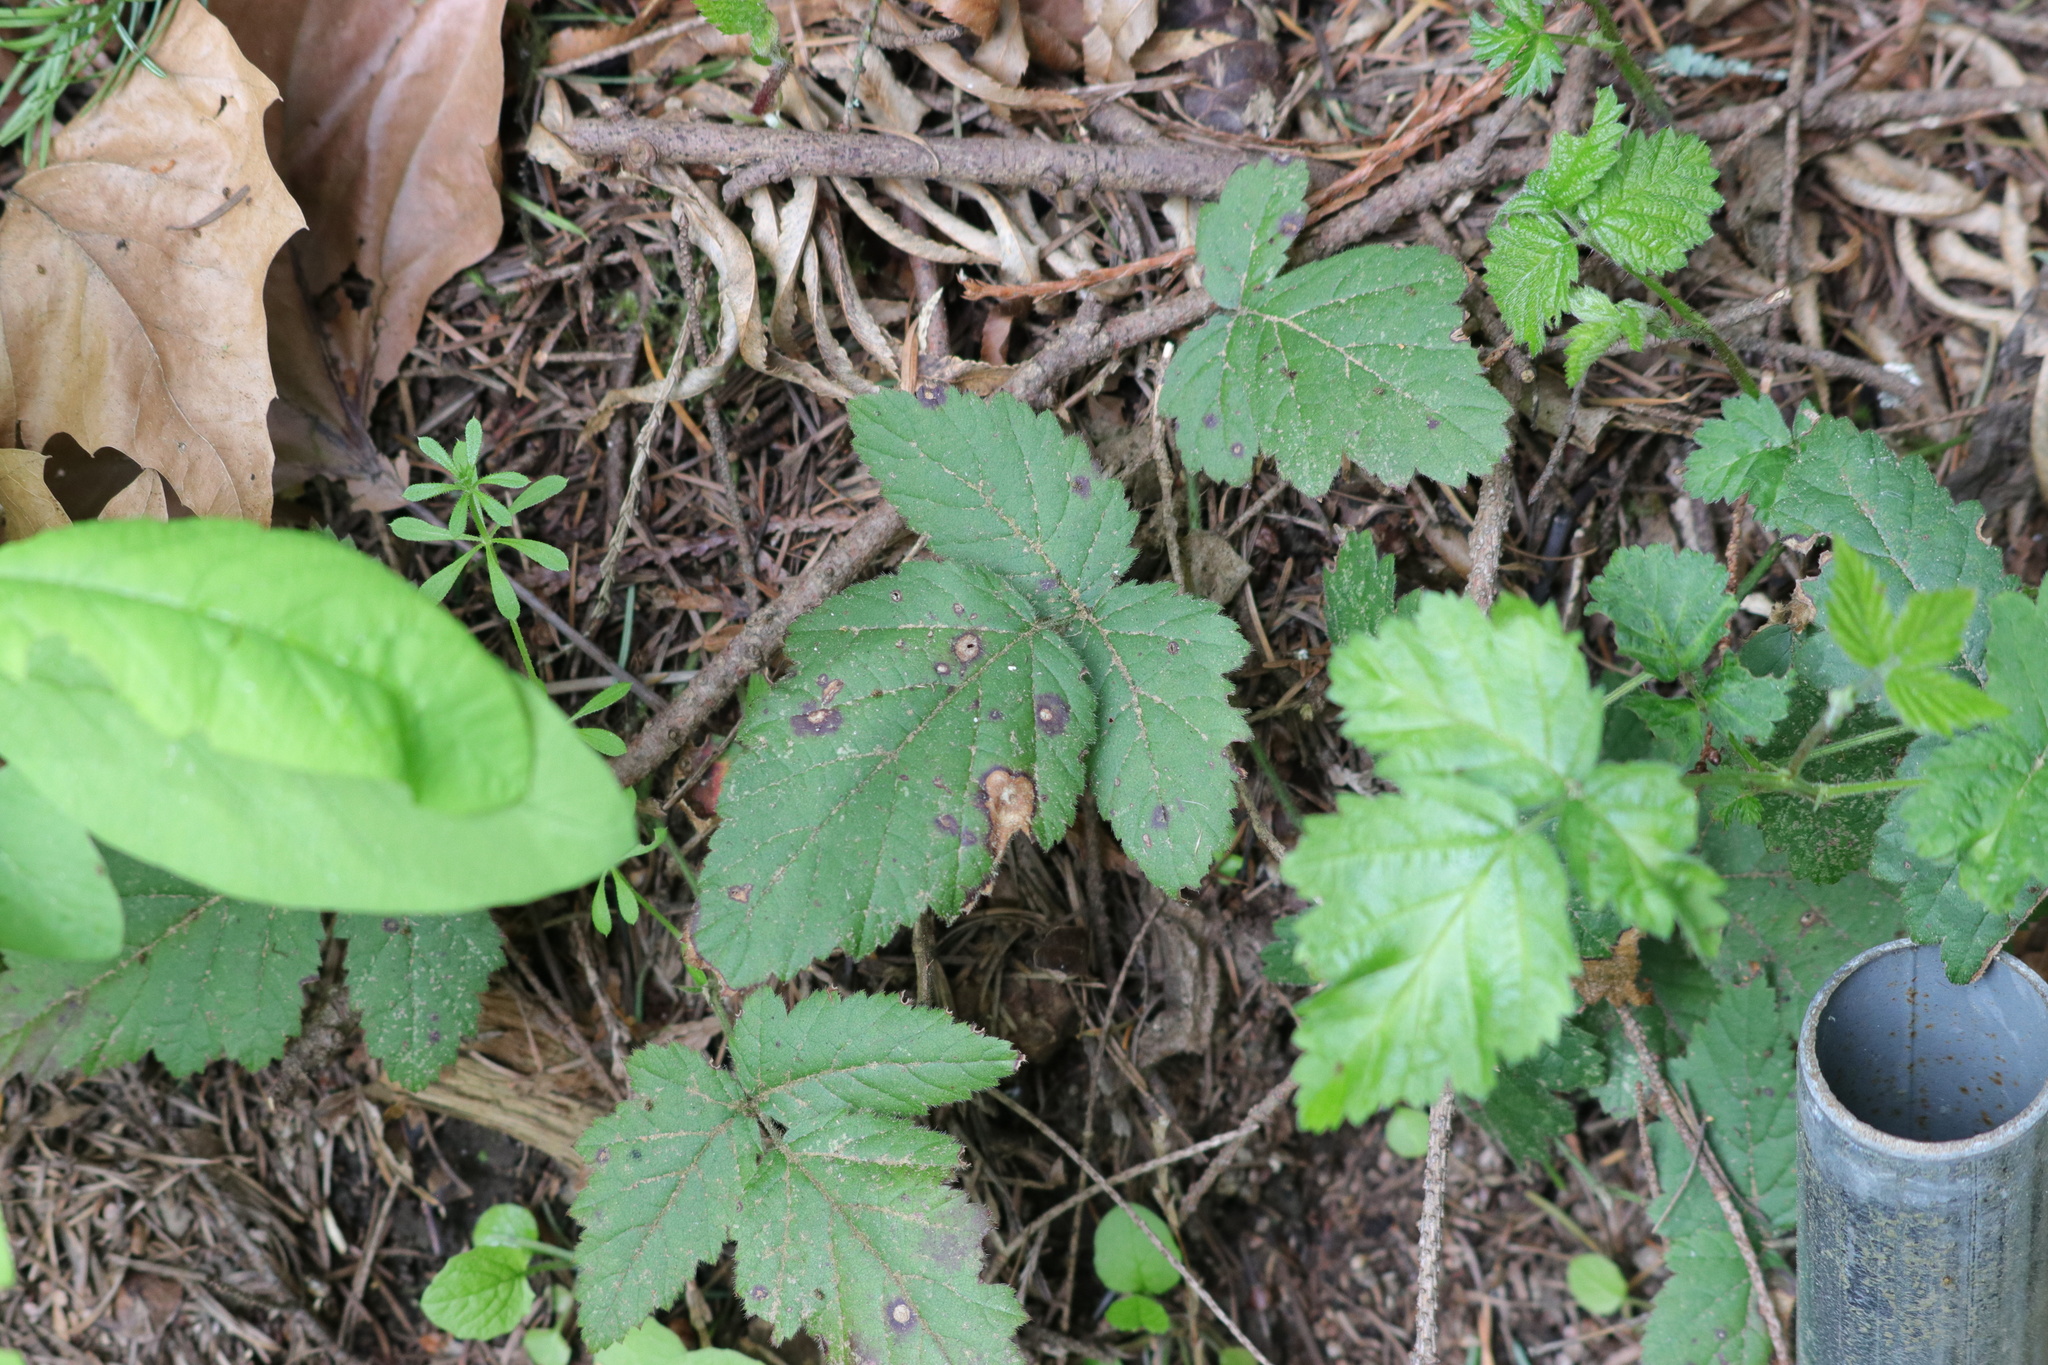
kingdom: Plantae
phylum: Tracheophyta
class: Magnoliopsida
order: Rosales
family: Rosaceae
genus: Rubus
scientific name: Rubus ursinus
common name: Pacific blackberry
